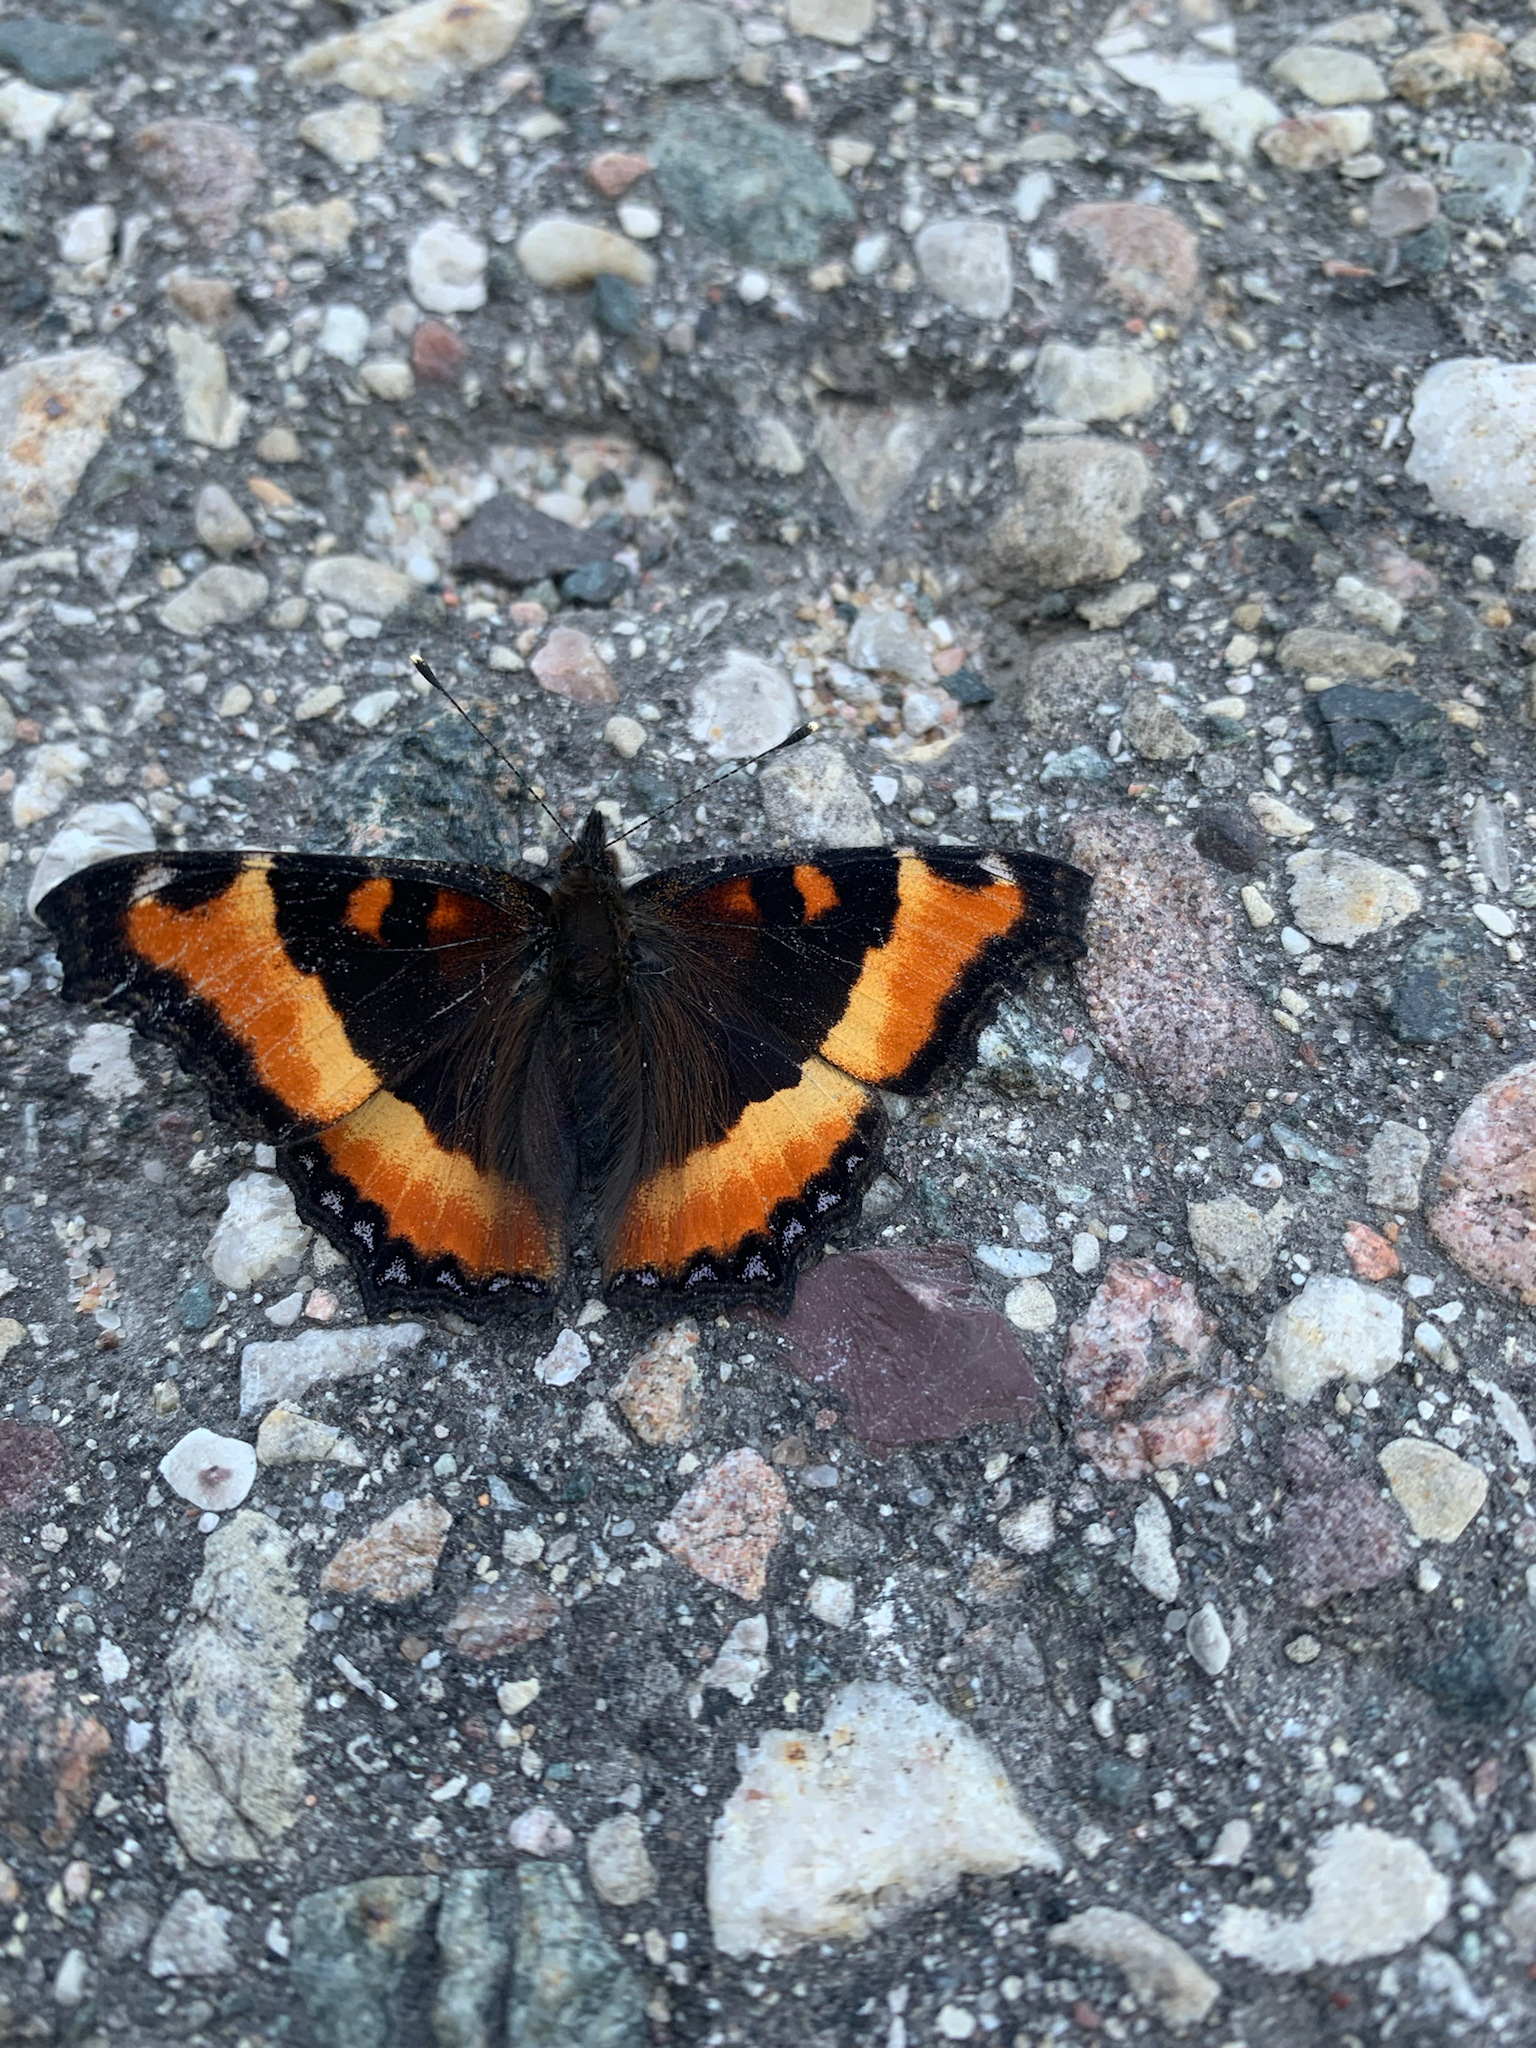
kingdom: Animalia
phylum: Arthropoda
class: Insecta
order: Lepidoptera
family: Nymphalidae
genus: Aglais
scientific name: Aglais milberti
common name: Milbert's tortoiseshell
